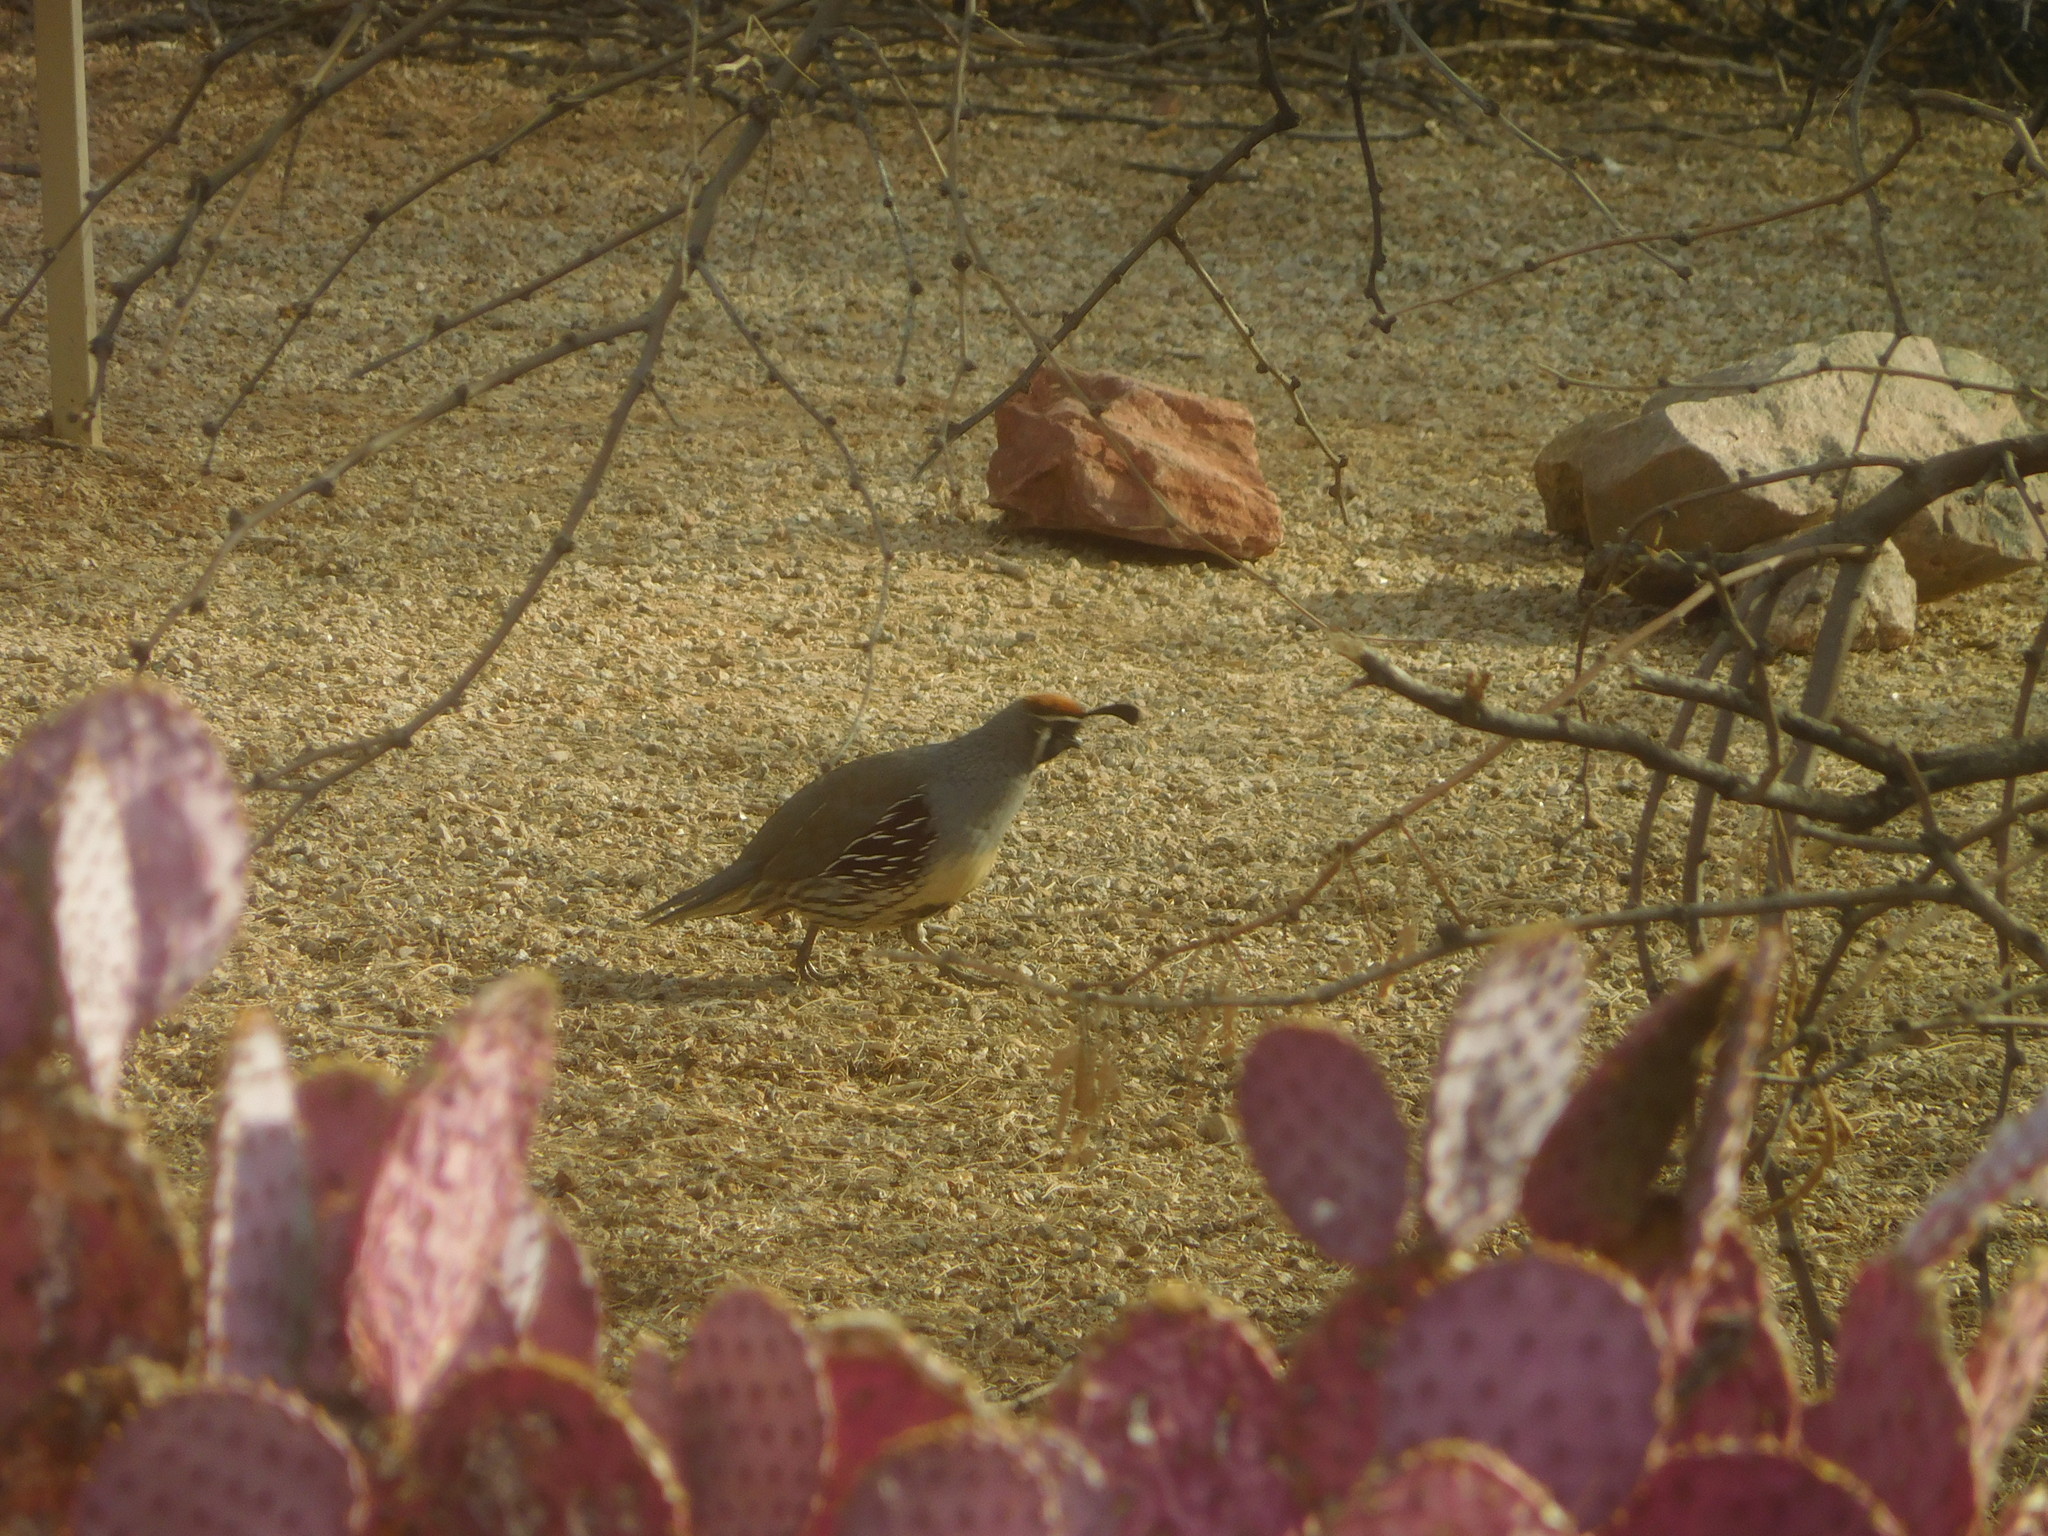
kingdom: Animalia
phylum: Chordata
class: Aves
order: Galliformes
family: Odontophoridae
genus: Callipepla
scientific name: Callipepla gambelii
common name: Gambel's quail
